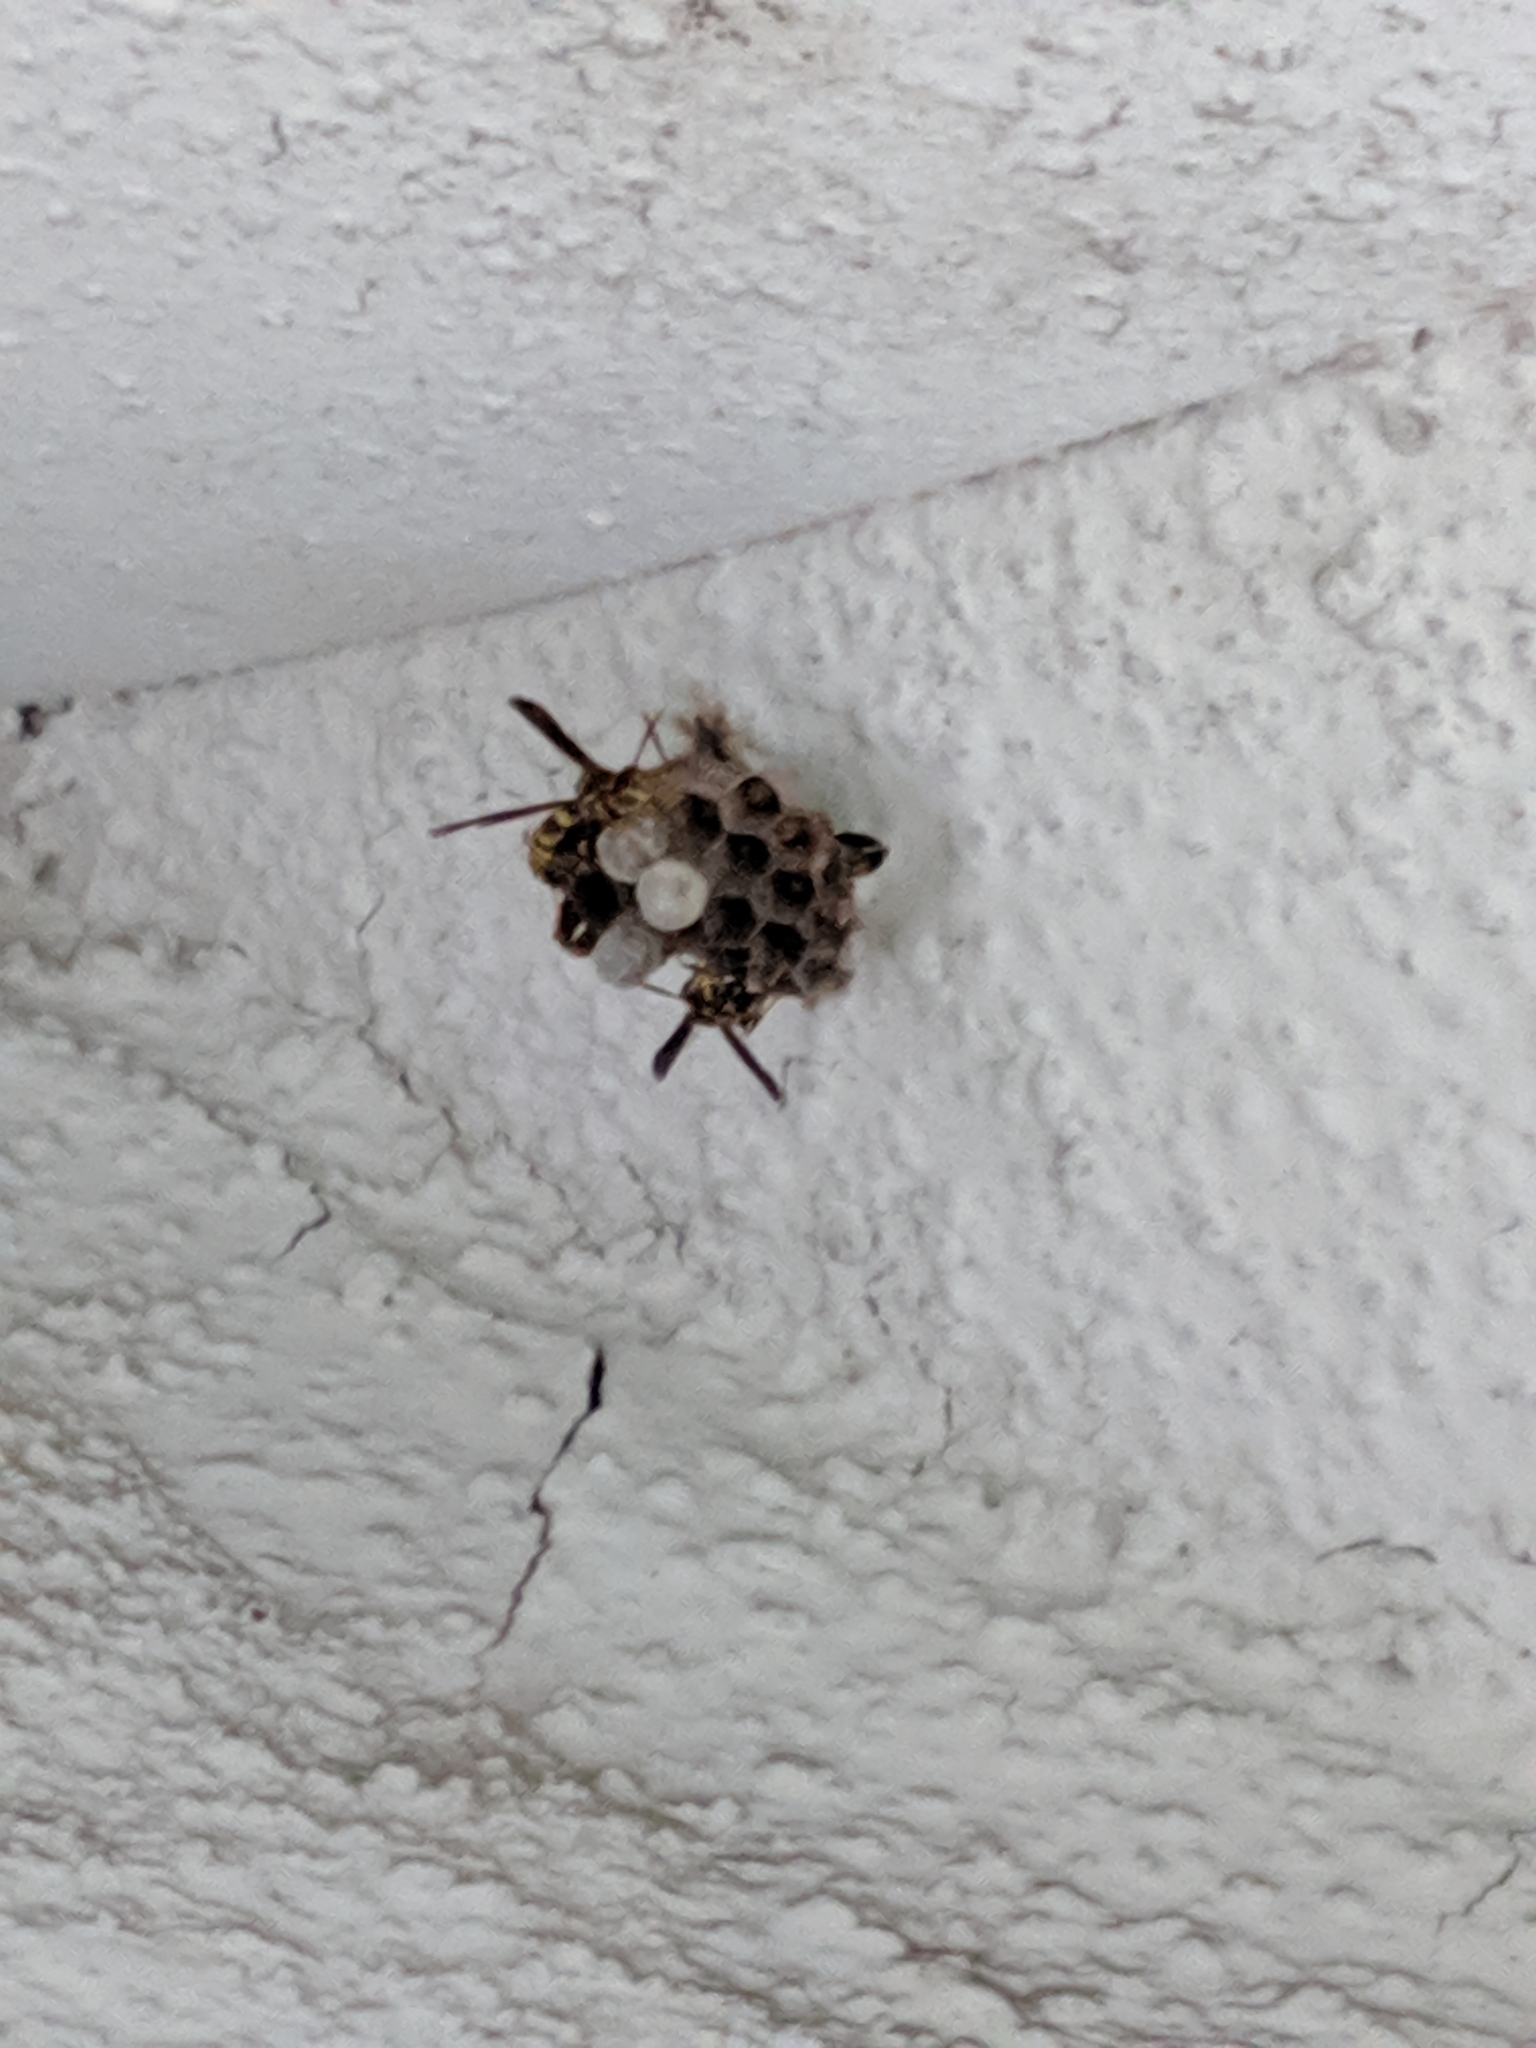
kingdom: Animalia
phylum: Arthropoda
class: Insecta
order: Hymenoptera
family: Eumenidae
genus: Polistes
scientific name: Polistes exclamans
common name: Paper wasp
